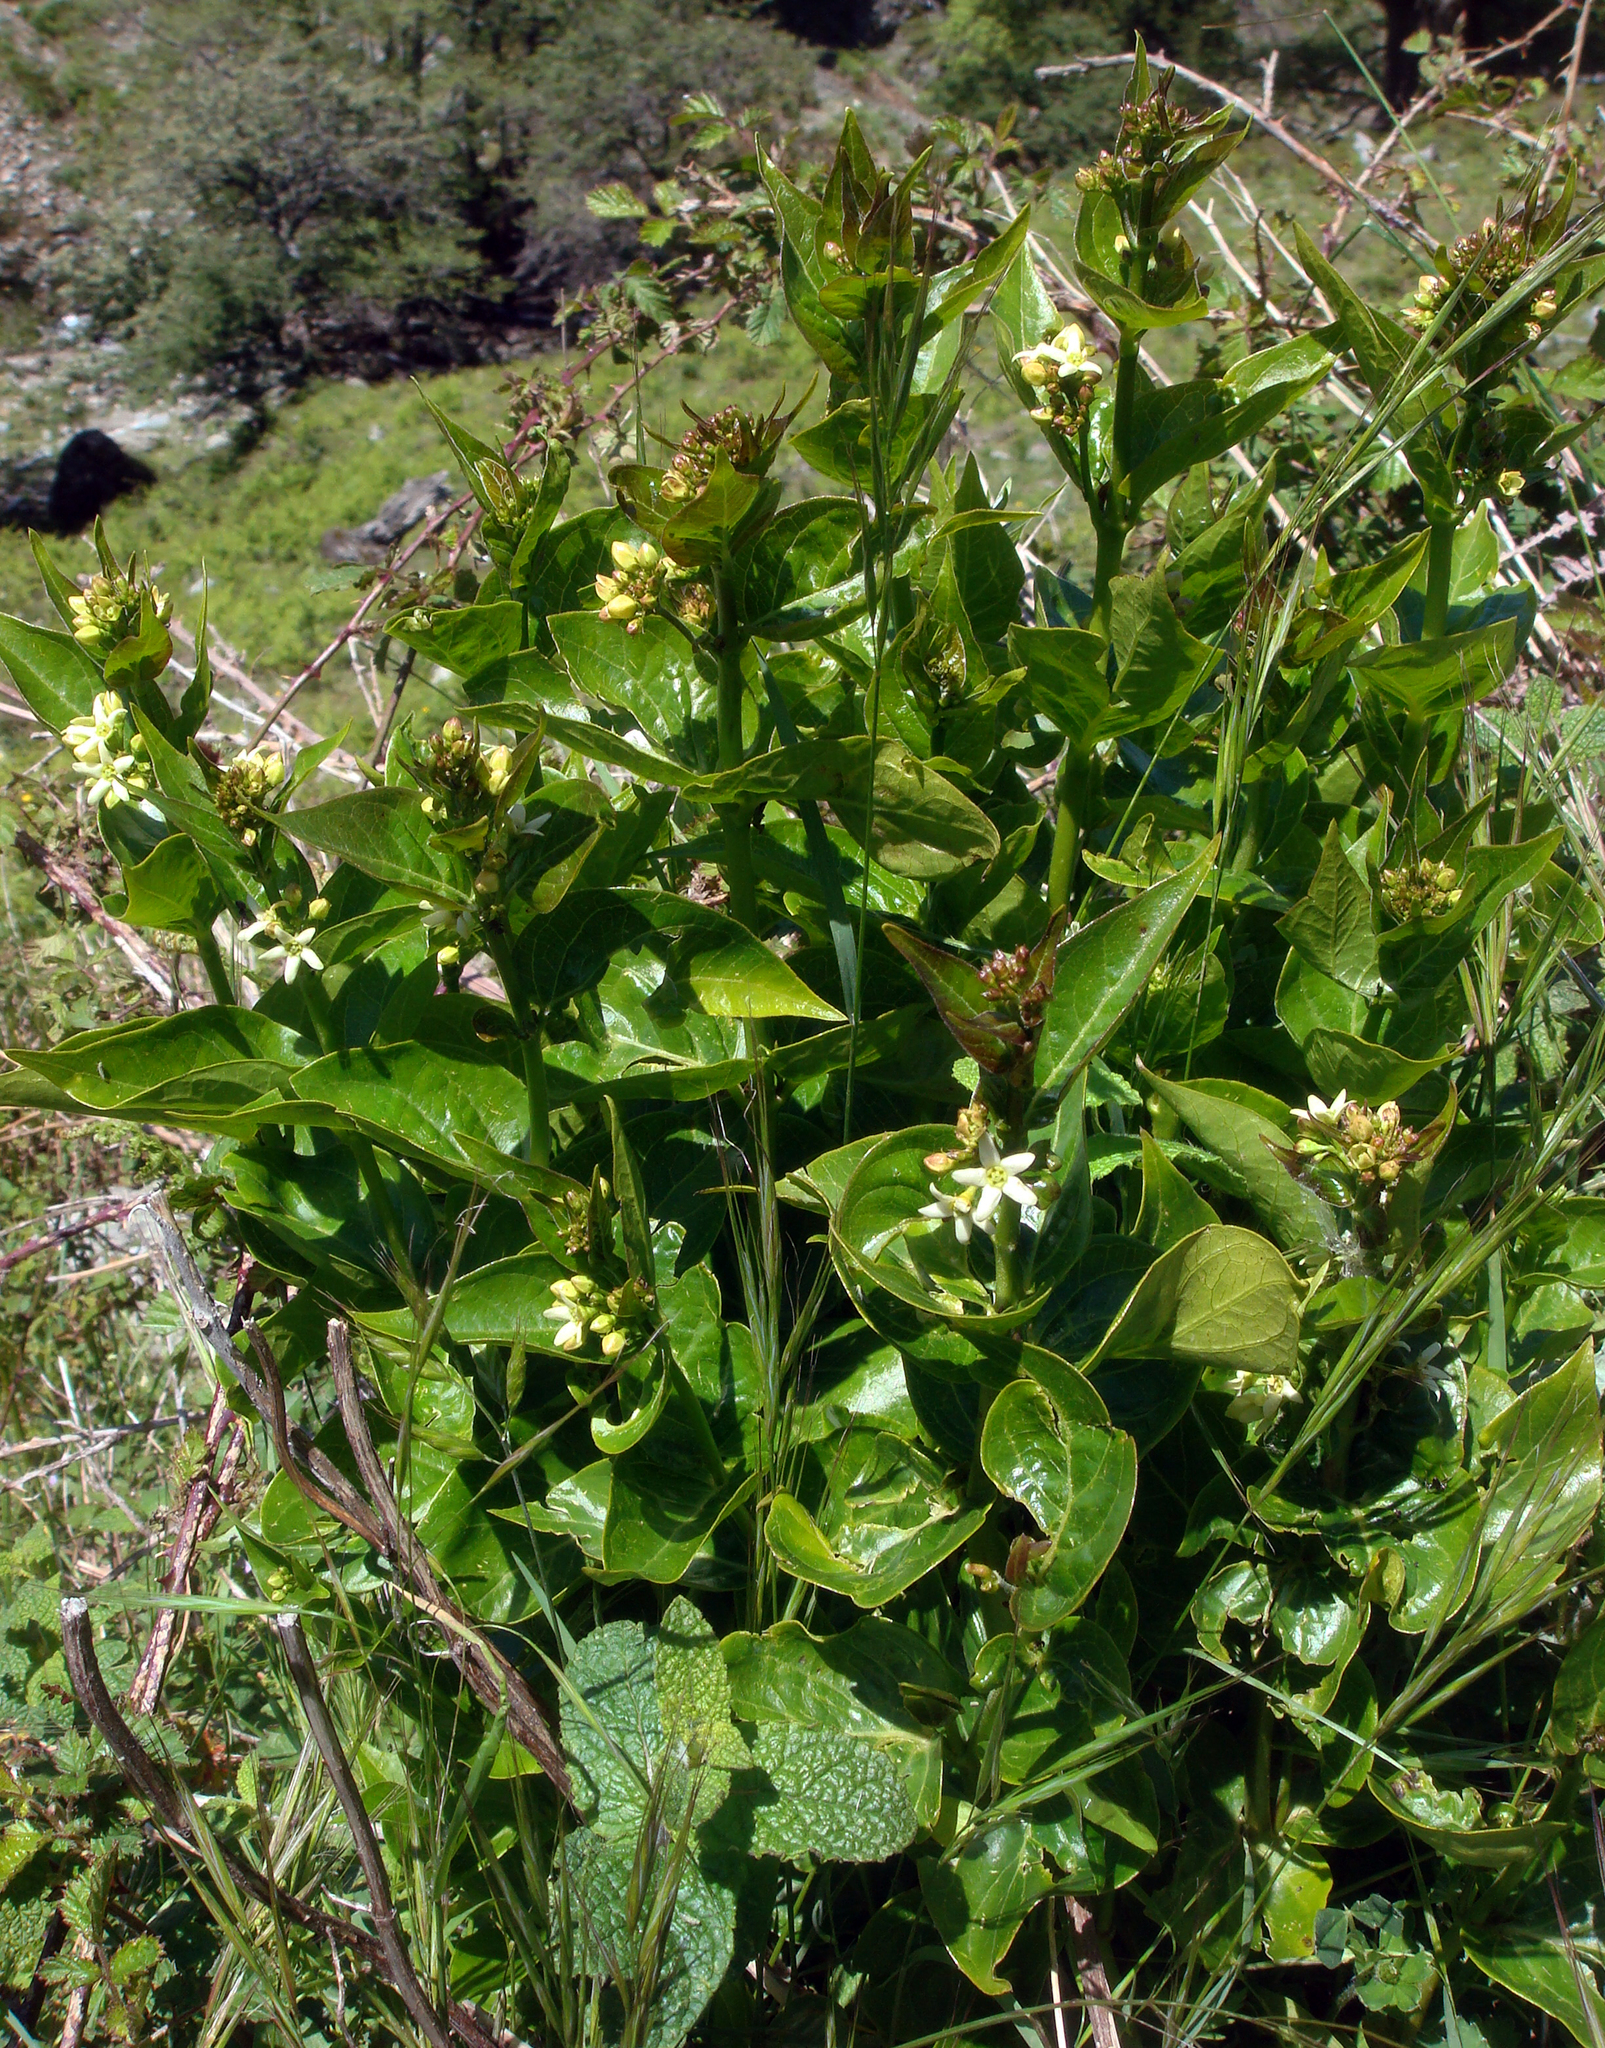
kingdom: Plantae
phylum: Tracheophyta
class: Magnoliopsida
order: Gentianales
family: Apocynaceae
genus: Vincetoxicum
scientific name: Vincetoxicum hirundinaria
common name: White swallowwort
